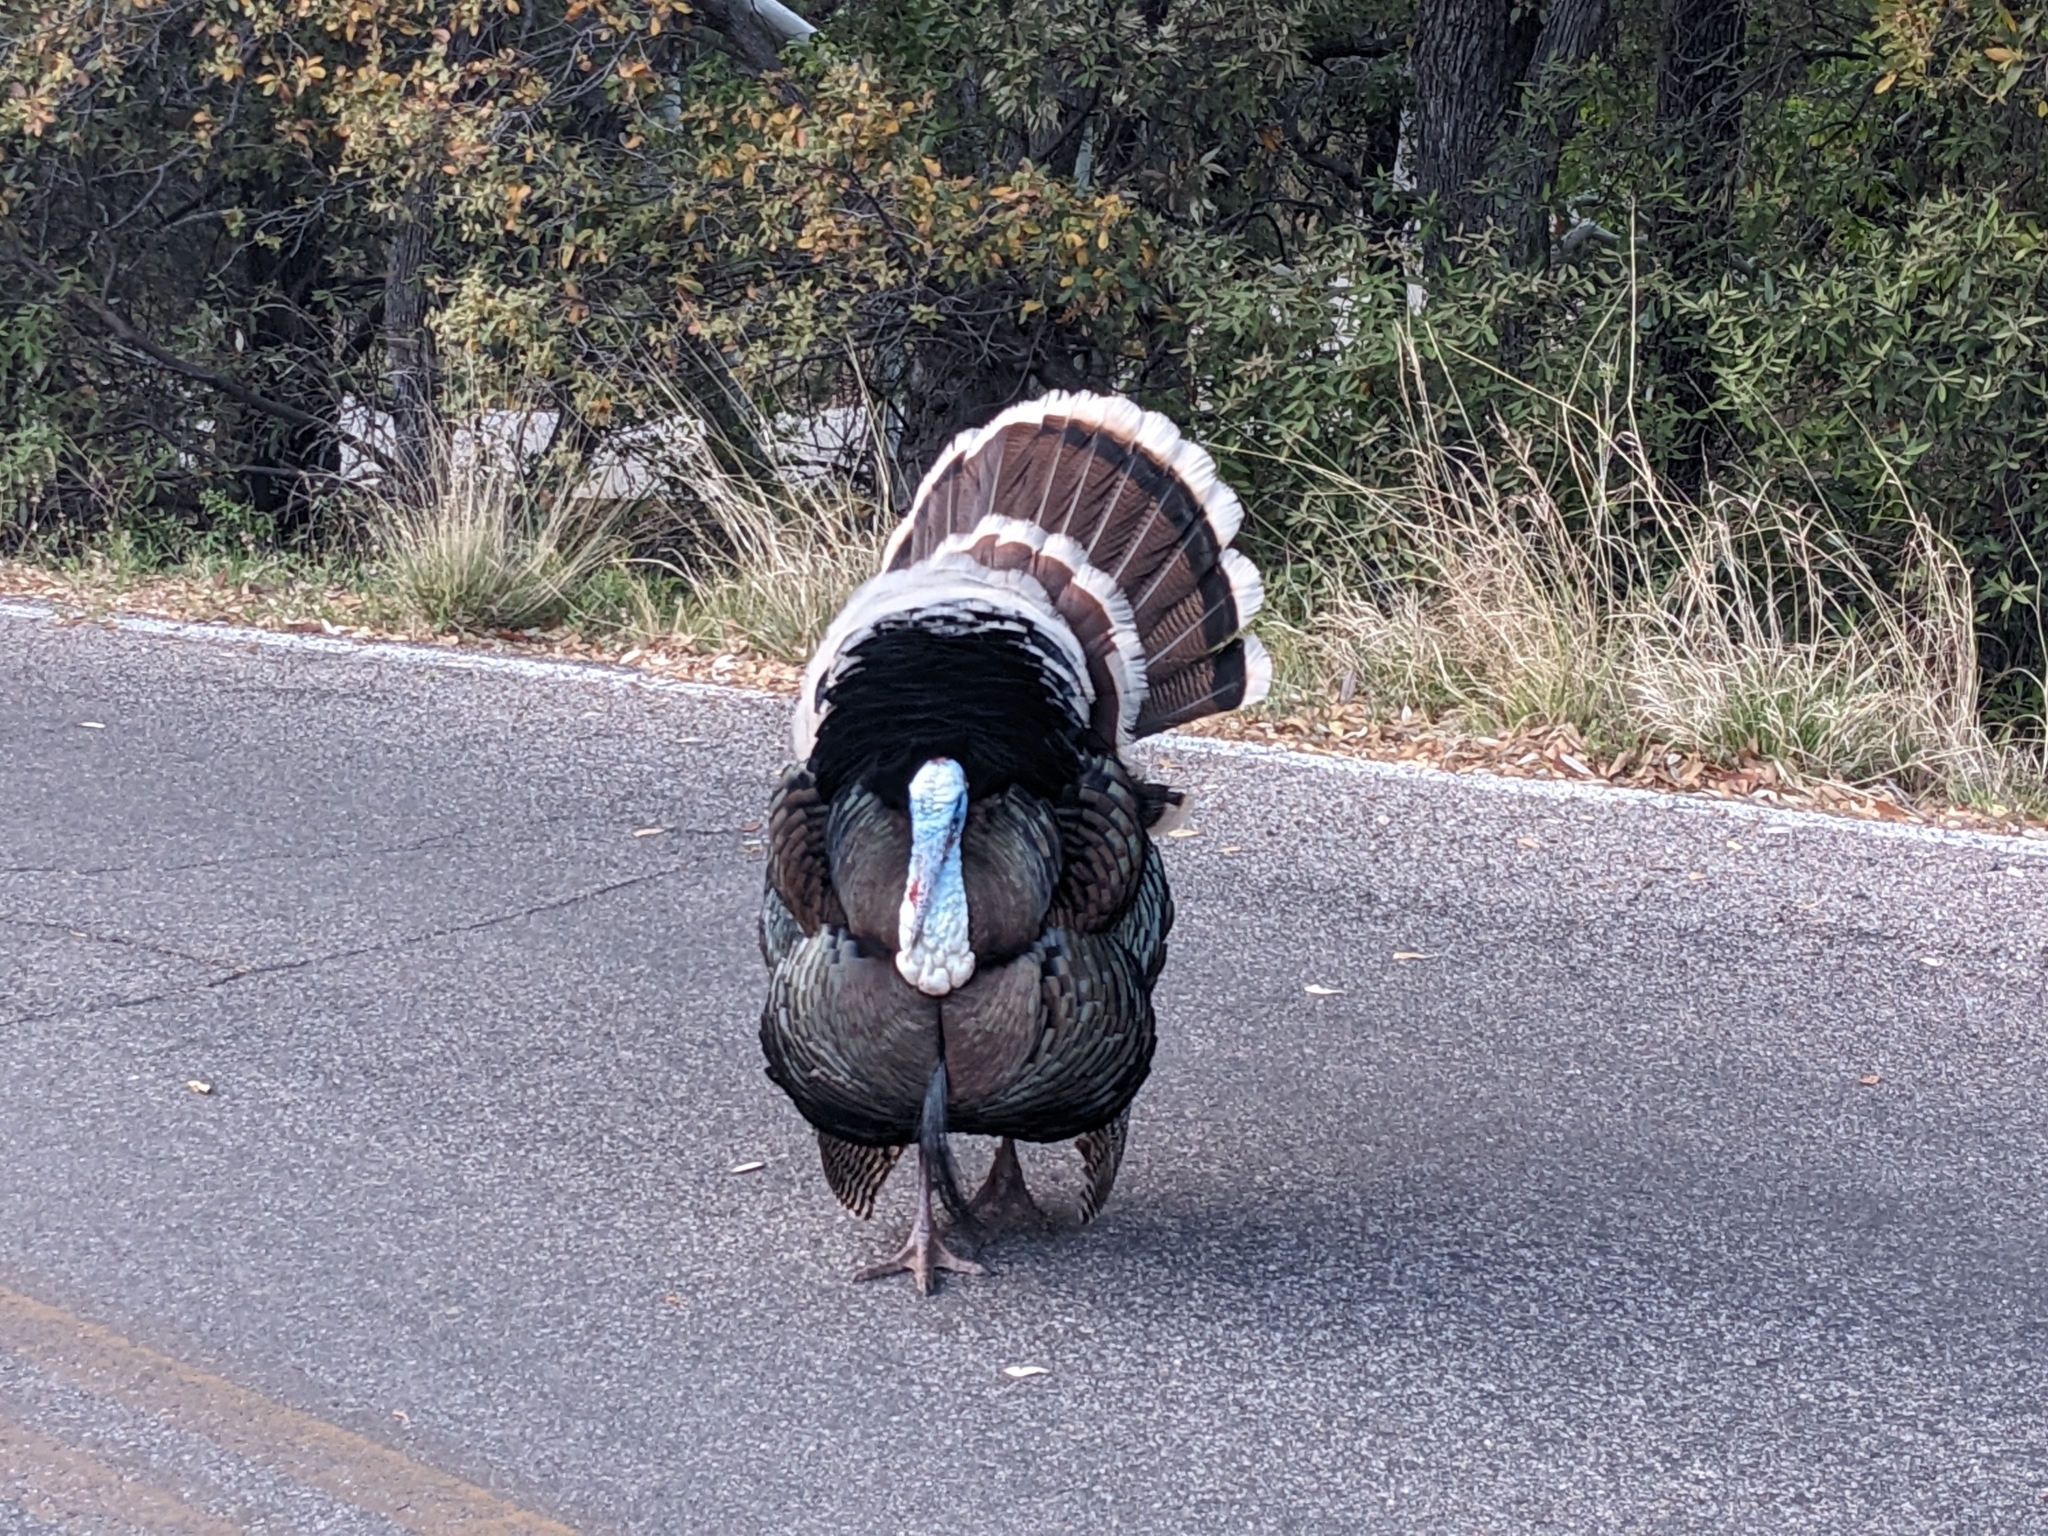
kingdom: Animalia
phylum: Chordata
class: Aves
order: Galliformes
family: Phasianidae
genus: Meleagris
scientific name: Meleagris gallopavo
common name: Wild turkey
